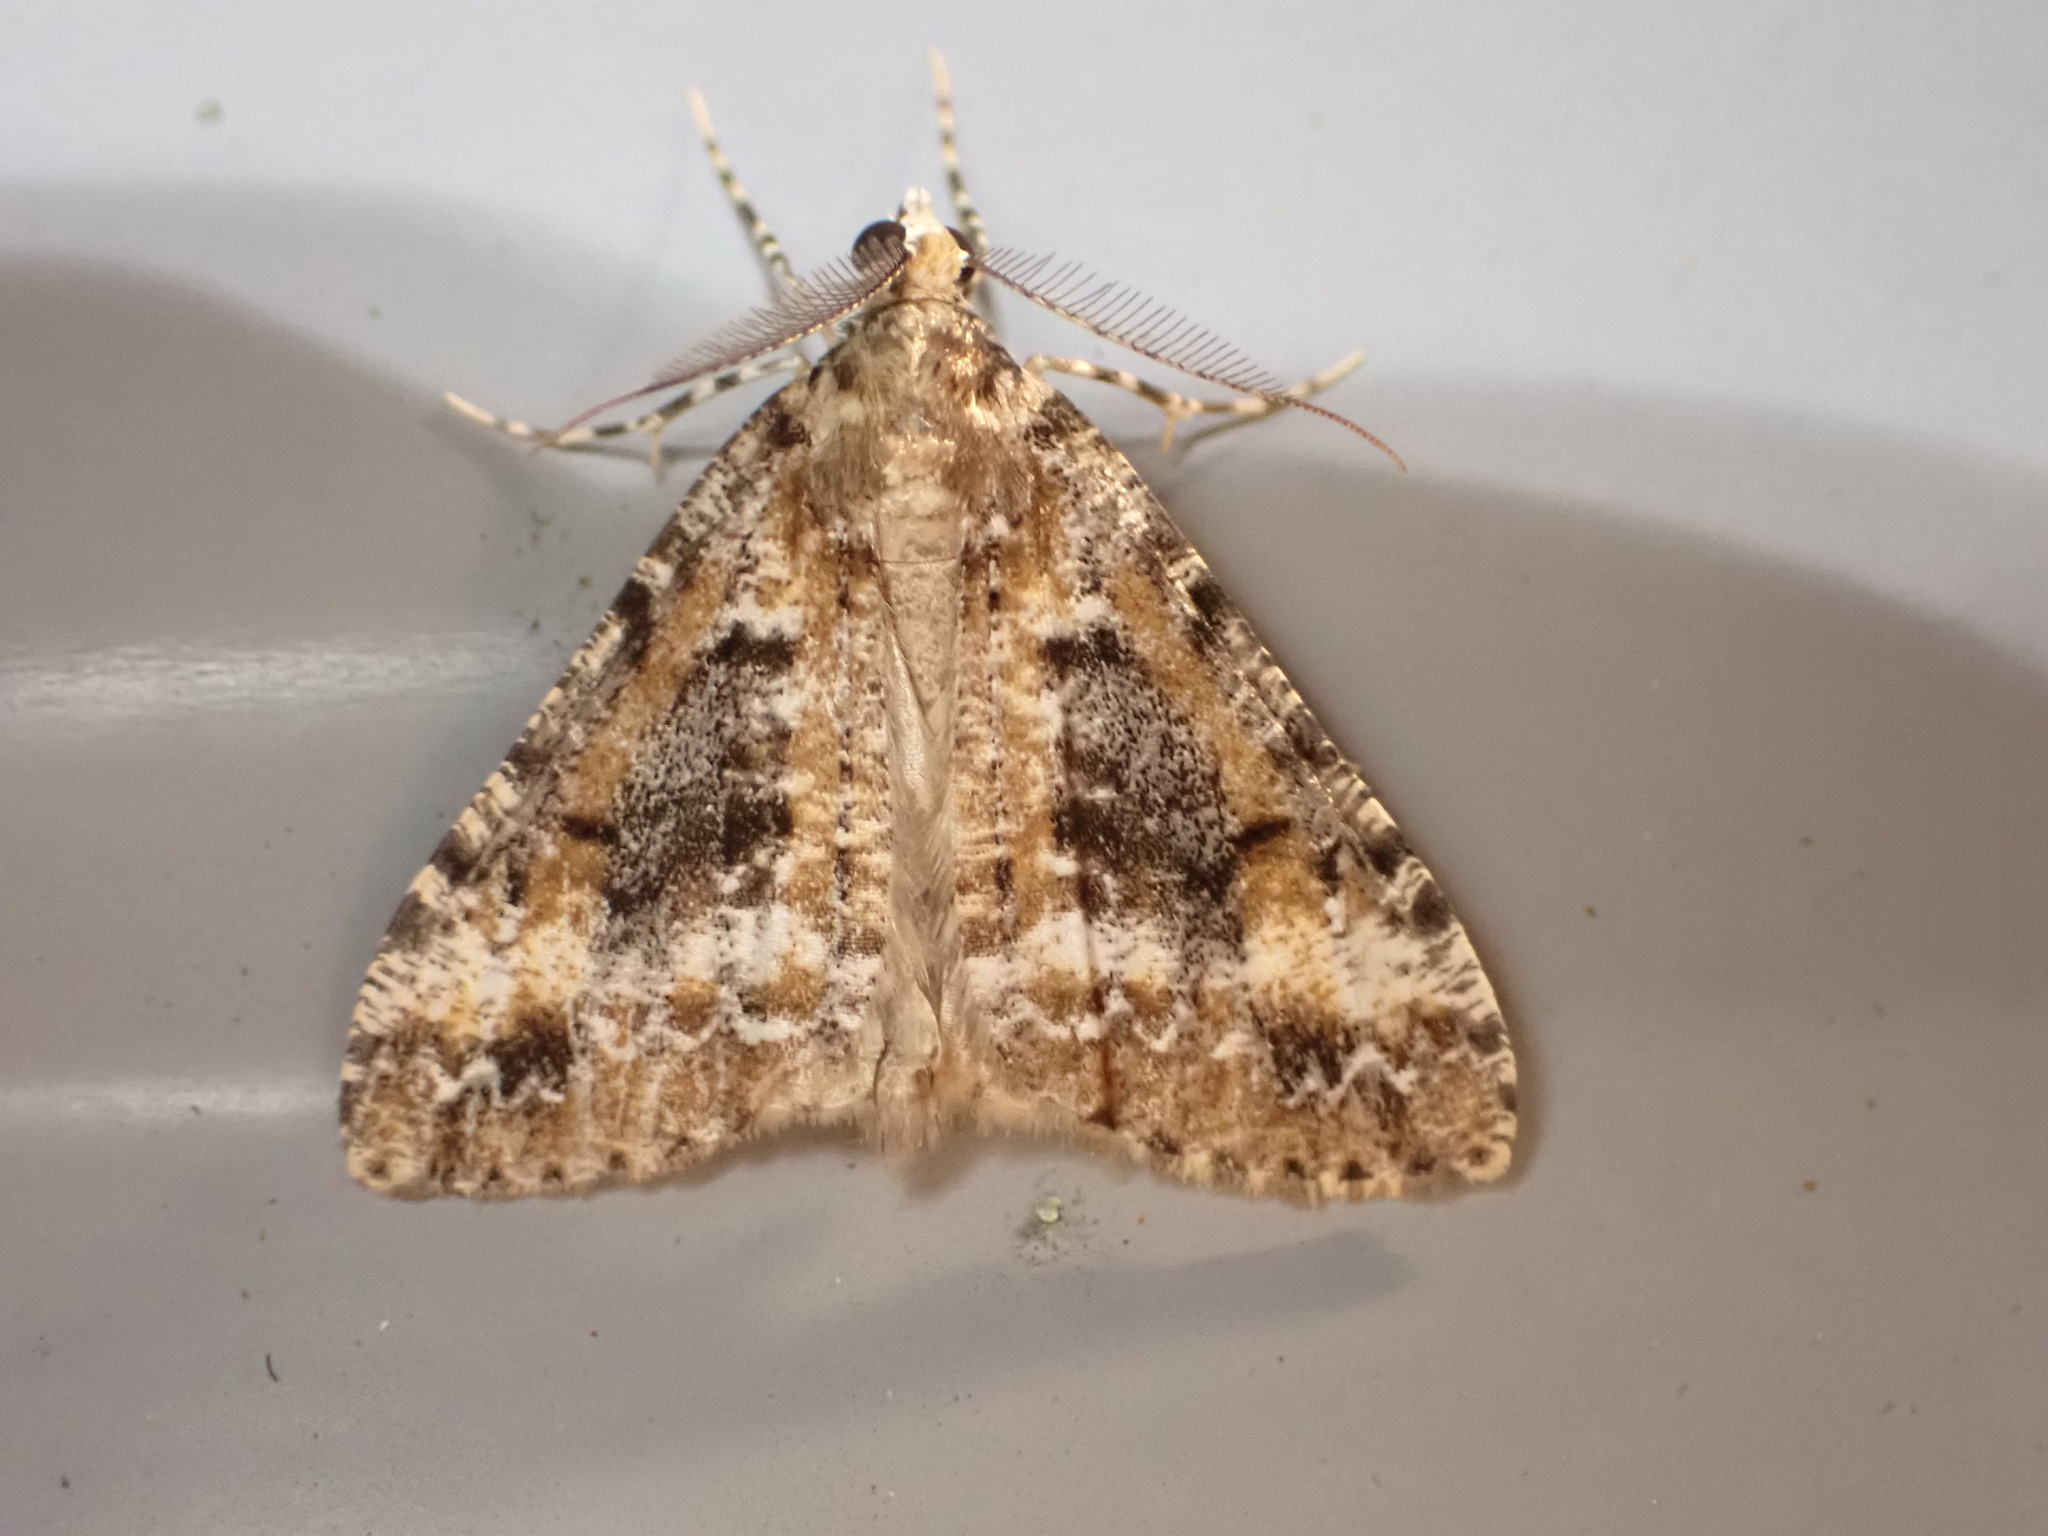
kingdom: Animalia
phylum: Arthropoda
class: Insecta
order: Lepidoptera
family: Geometridae
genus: Pseudocoremia
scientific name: Pseudocoremia leucelaea
